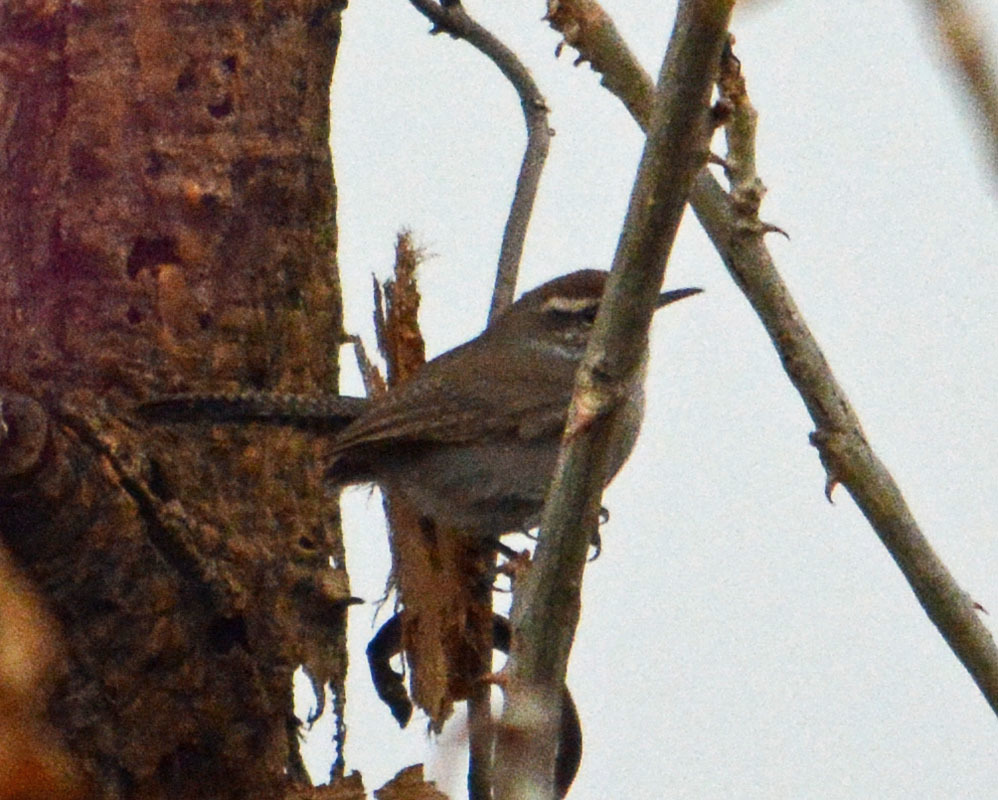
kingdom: Animalia
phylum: Chordata
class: Aves
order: Passeriformes
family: Troglodytidae
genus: Thryomanes
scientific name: Thryomanes bewickii
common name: Bewick's wren
